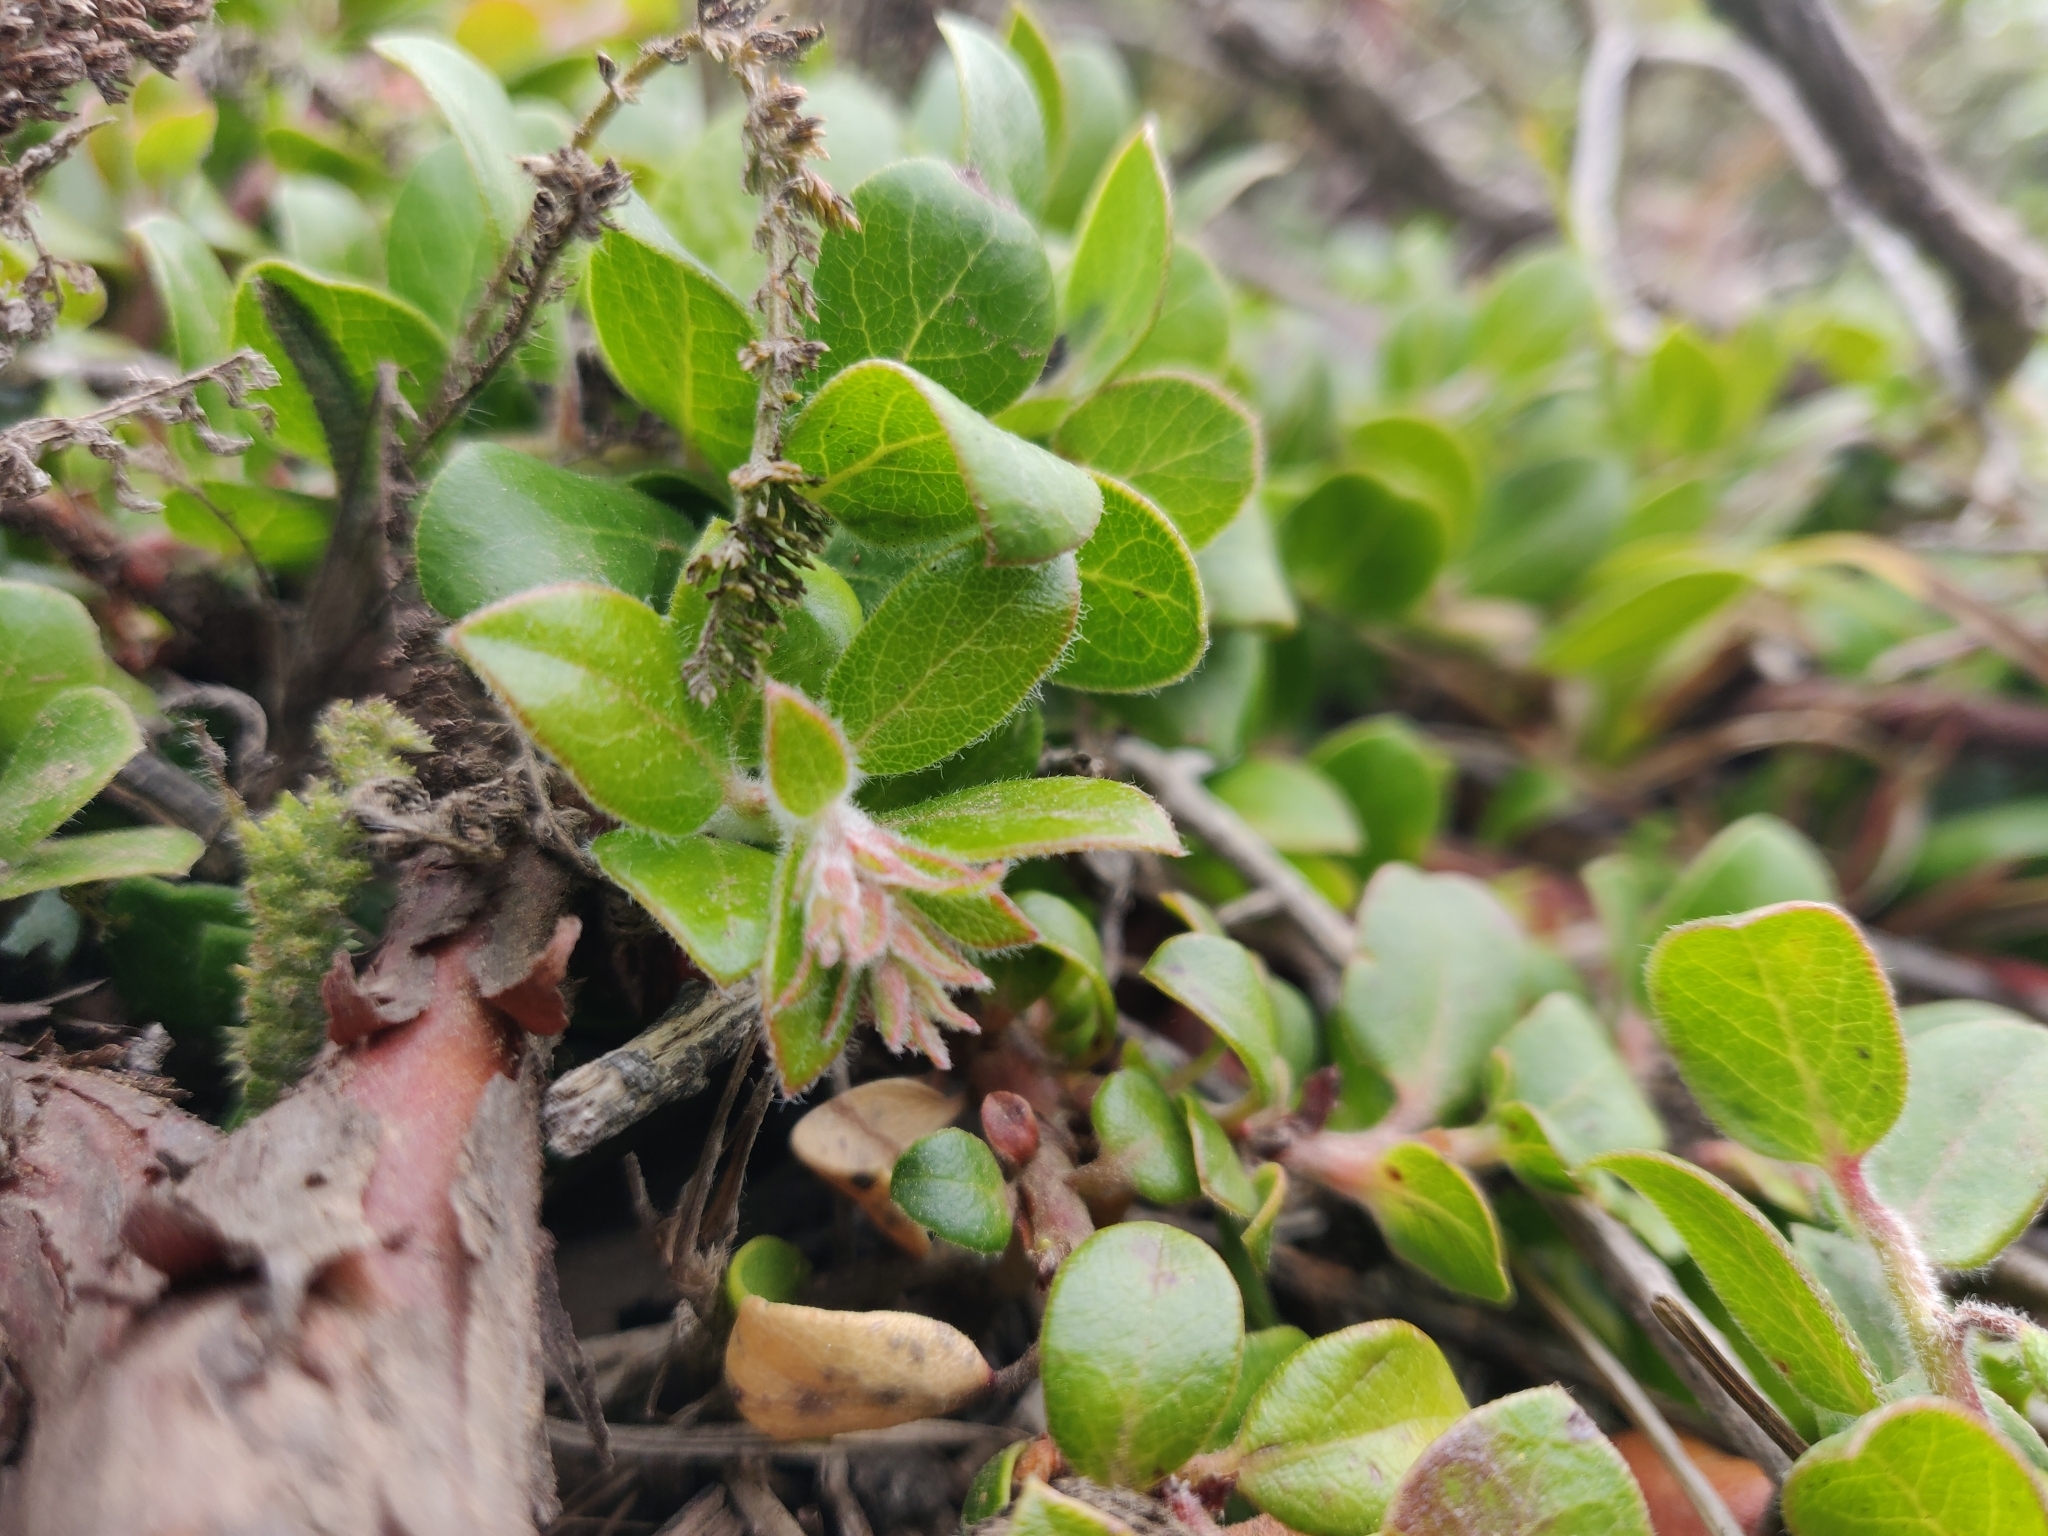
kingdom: Plantae
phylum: Tracheophyta
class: Magnoliopsida
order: Ericales
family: Ericaceae
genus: Arctostaphylos
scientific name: Arctostaphylos edmundsii
